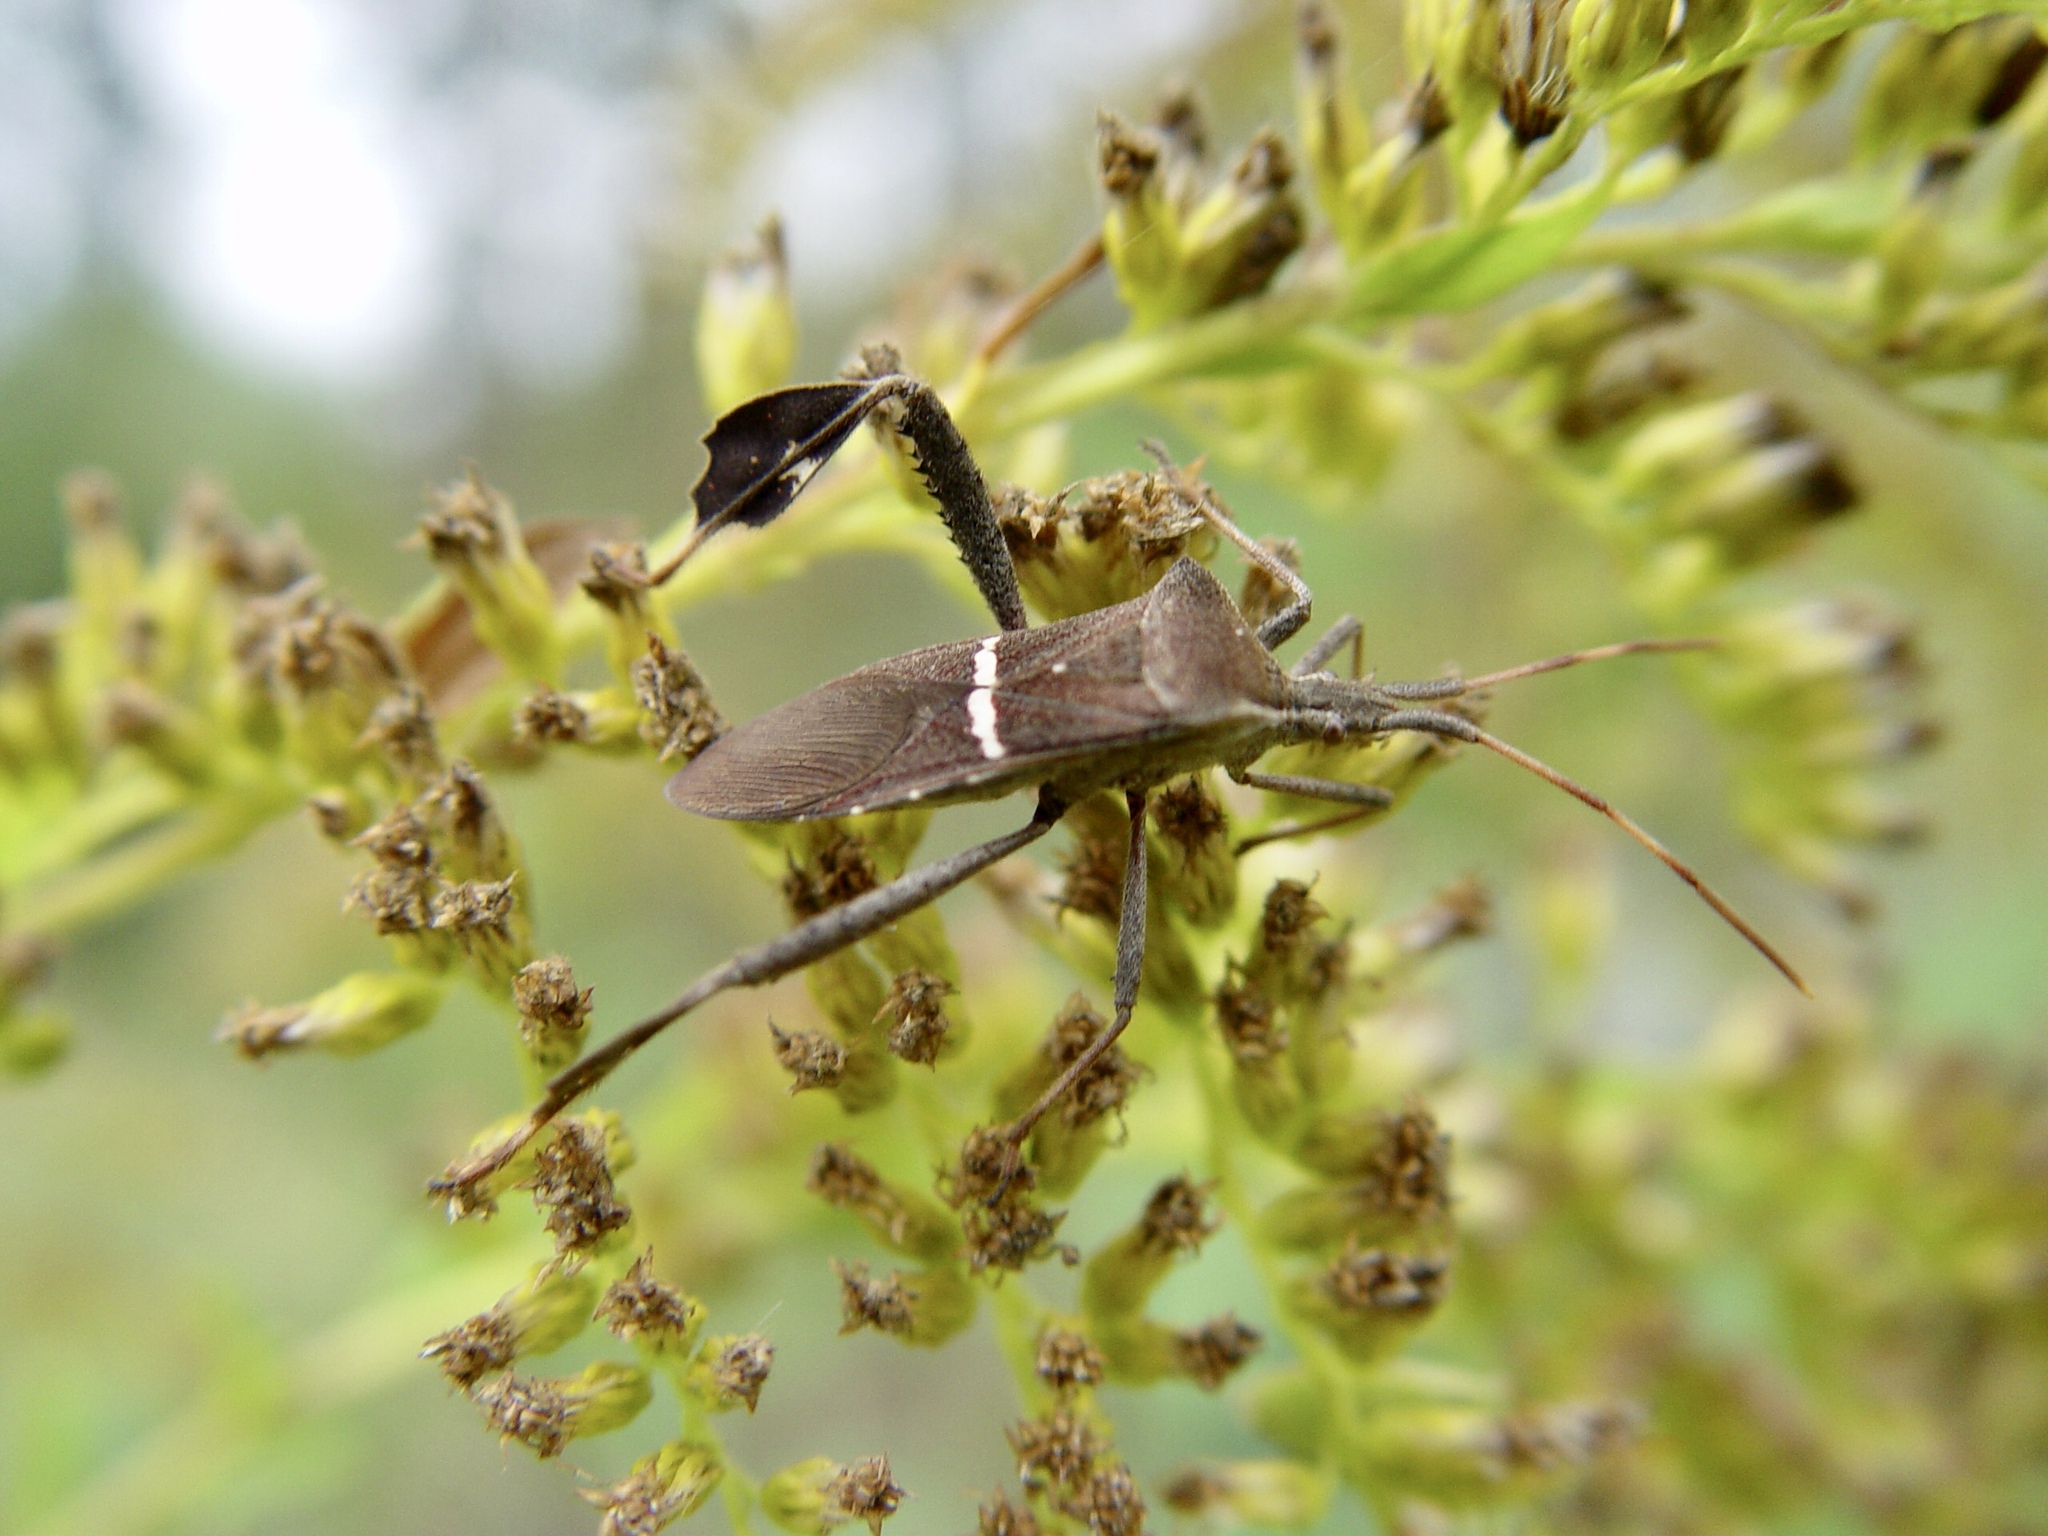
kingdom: Animalia
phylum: Arthropoda
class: Insecta
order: Hemiptera
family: Coreidae
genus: Leptoglossus
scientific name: Leptoglossus phyllopus
